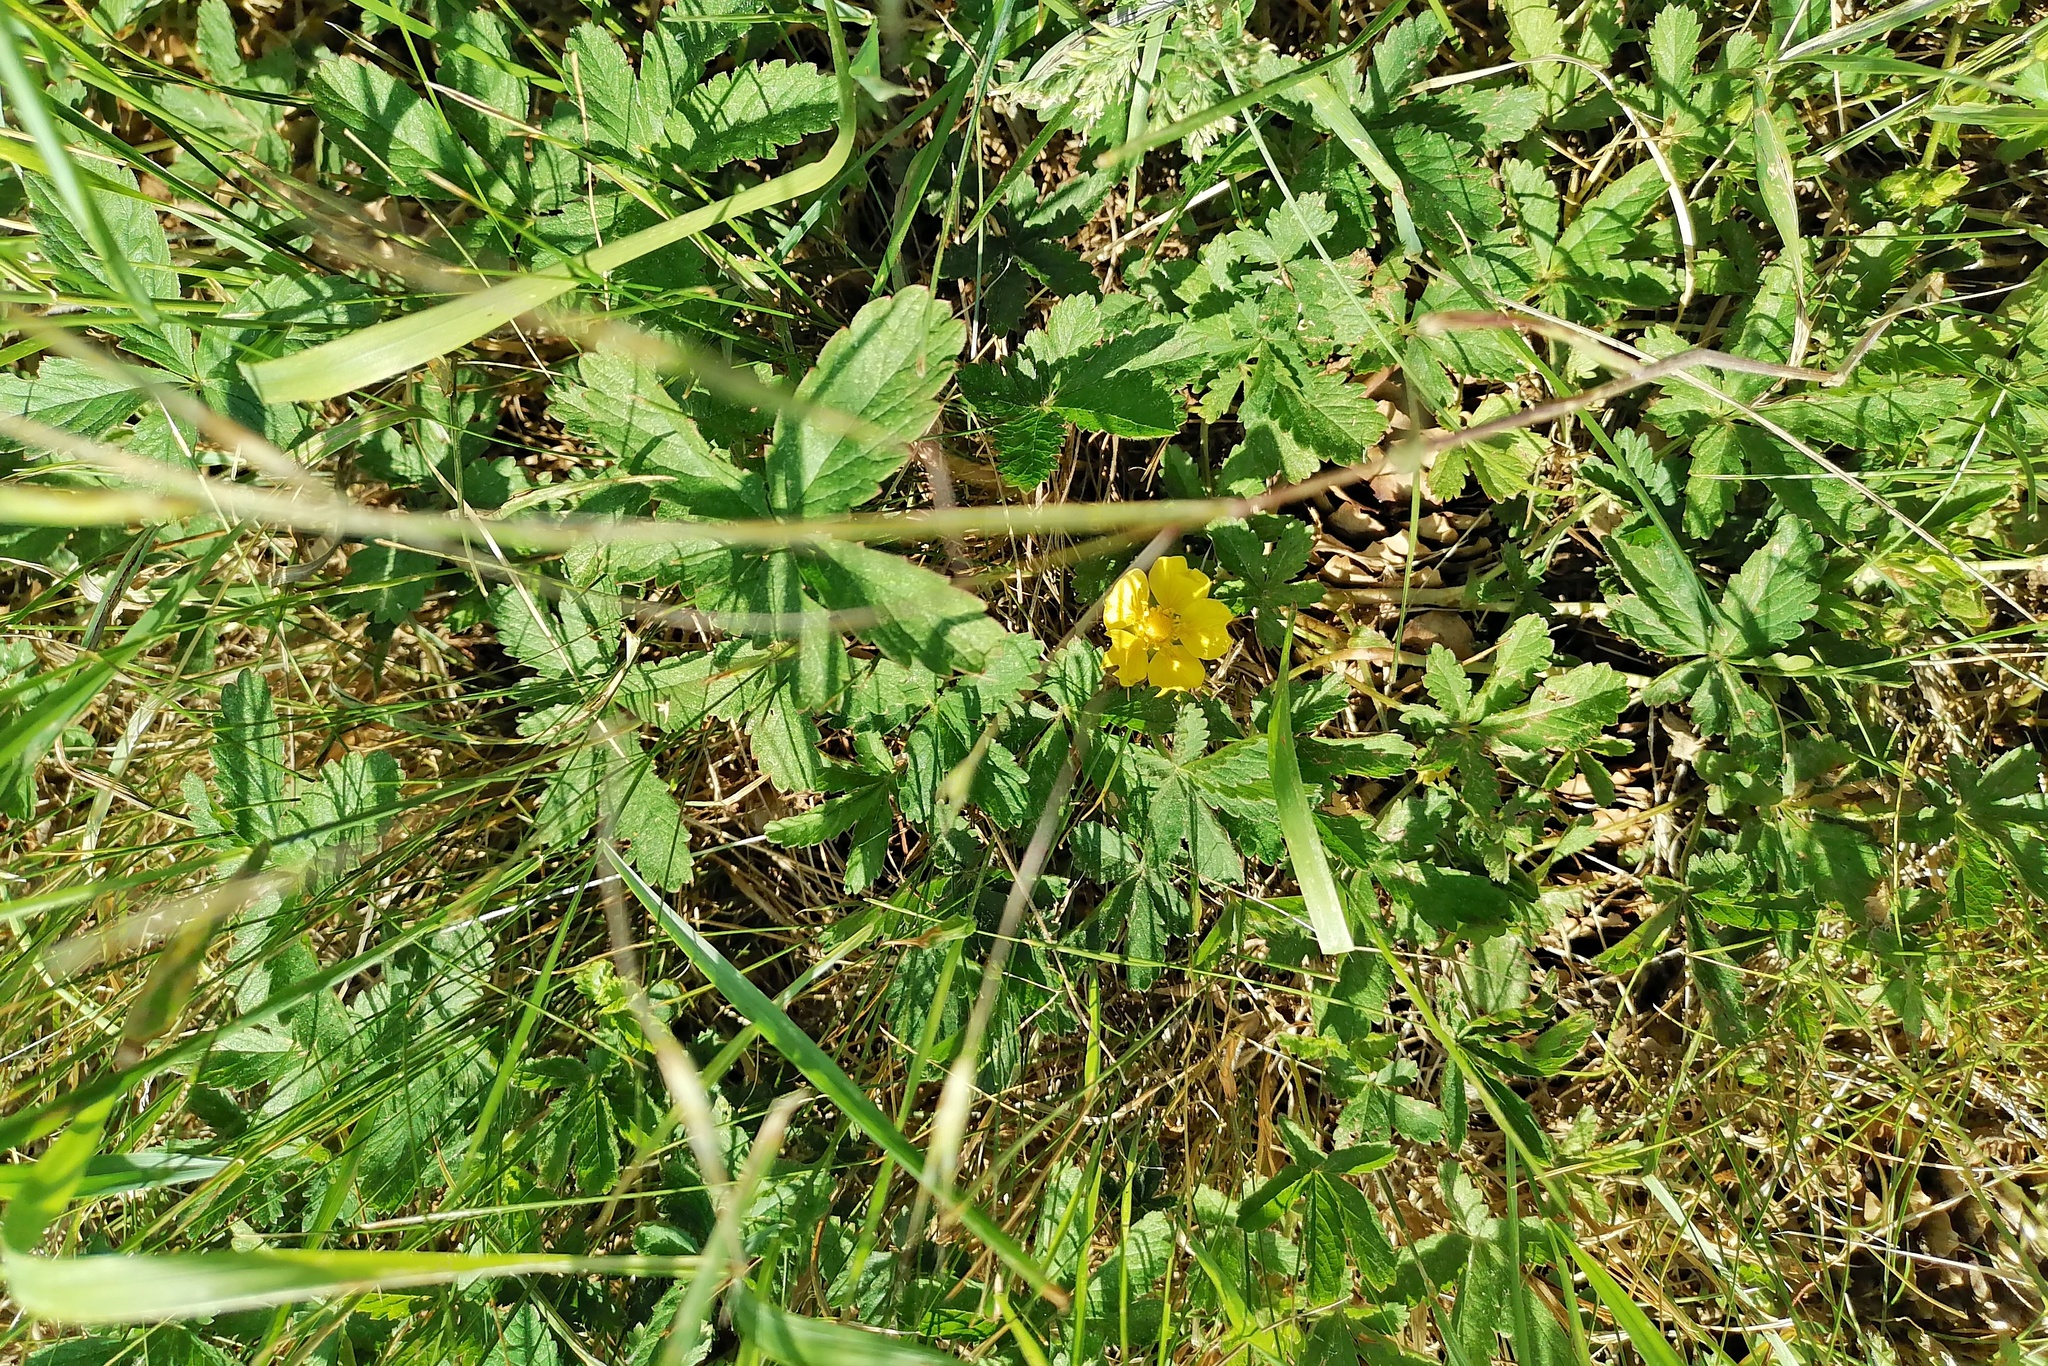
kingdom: Plantae
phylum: Tracheophyta
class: Magnoliopsida
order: Rosales
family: Rosaceae
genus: Potentilla
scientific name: Potentilla reptans
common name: Creeping cinquefoil
